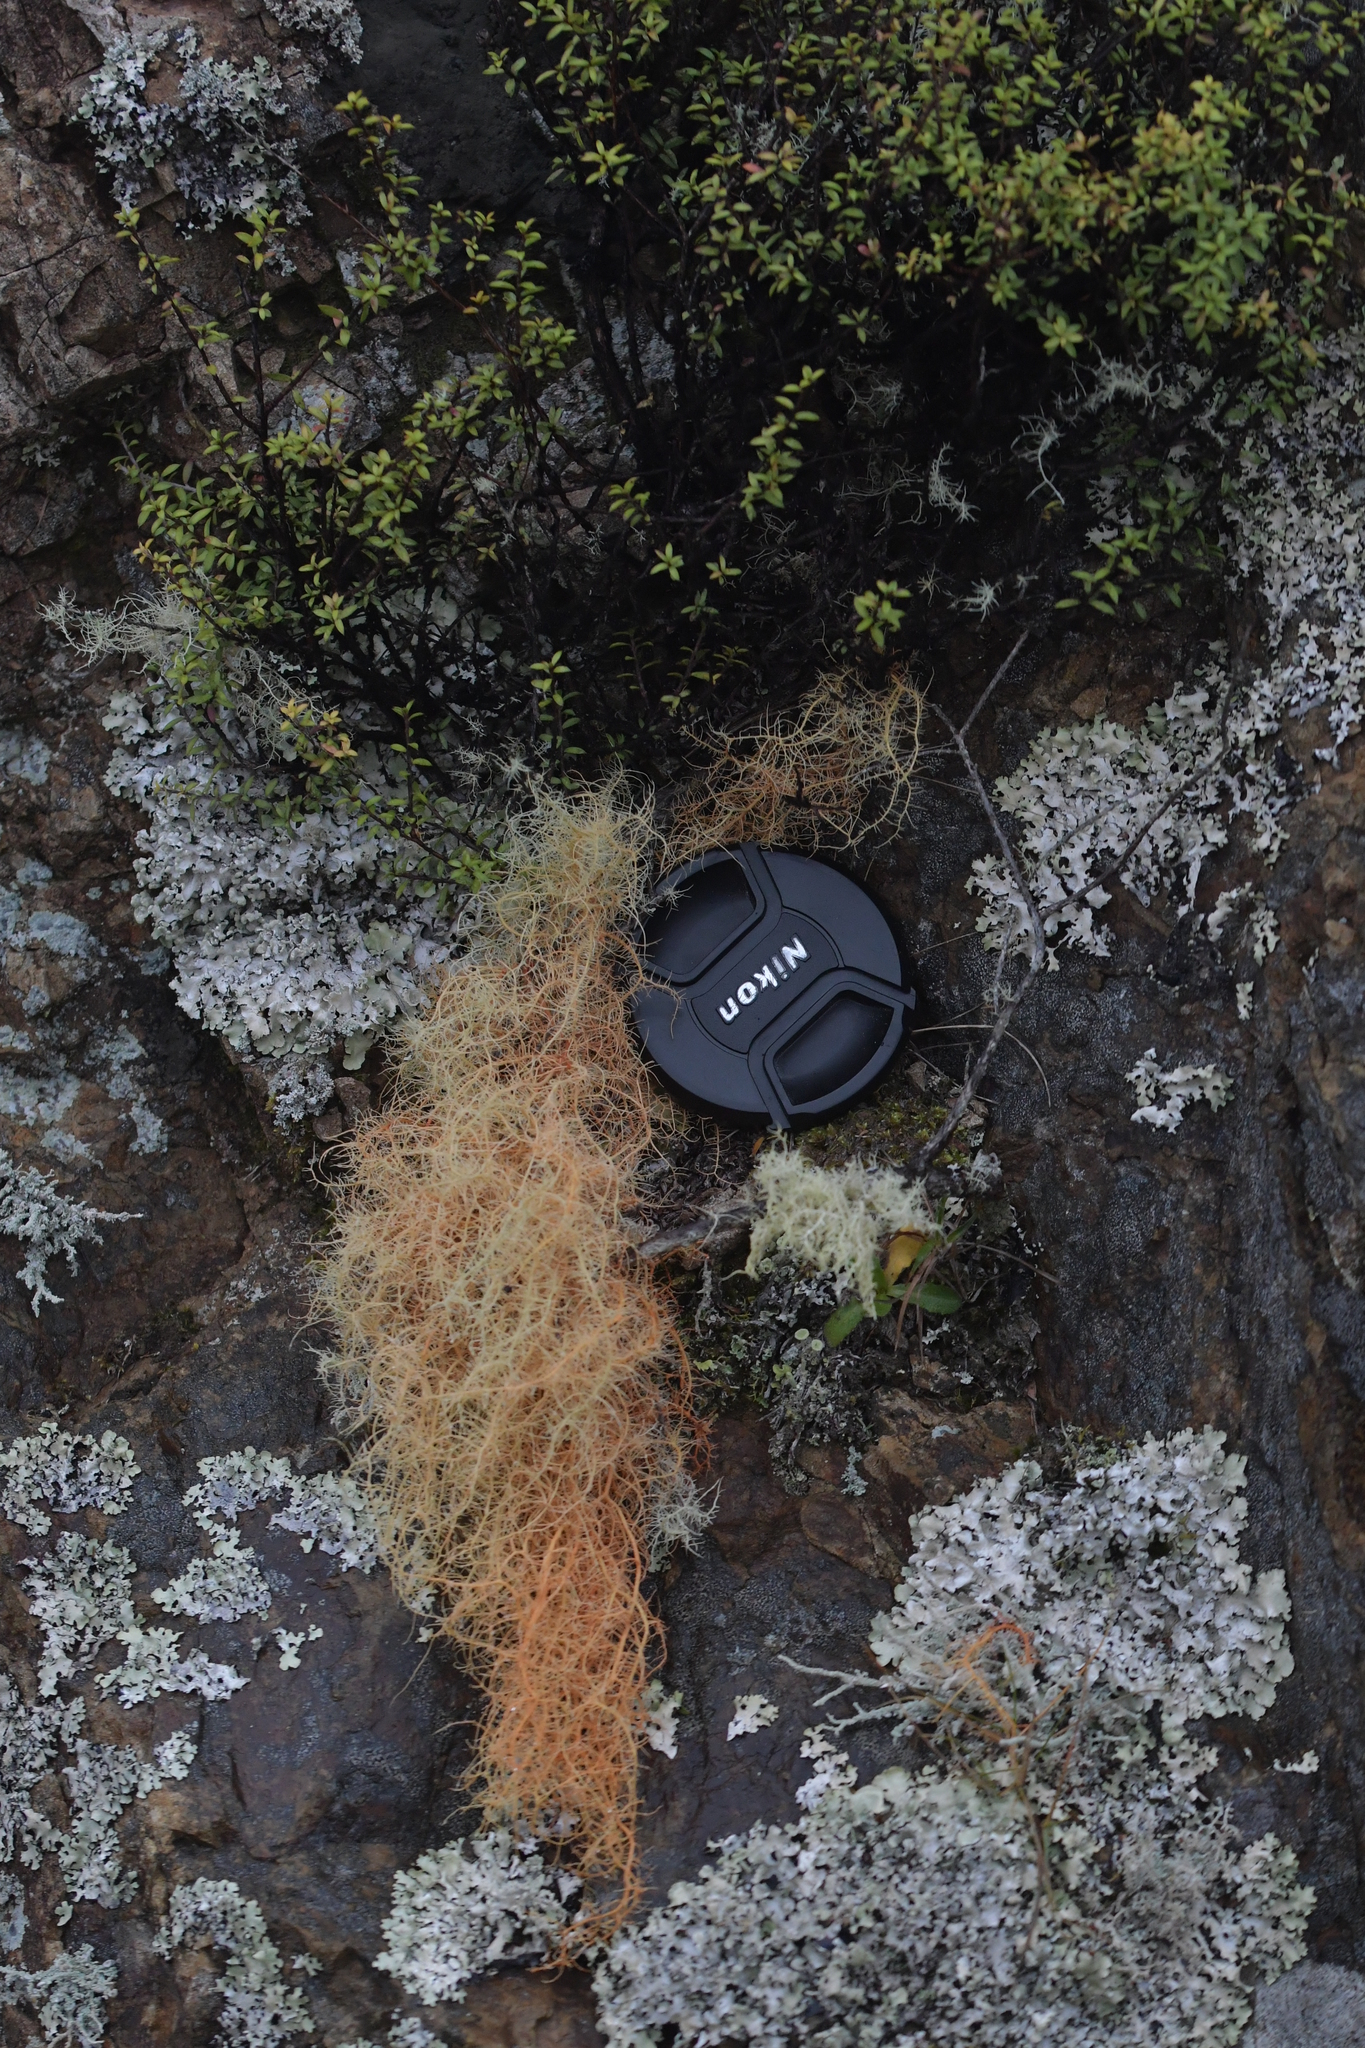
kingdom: Fungi
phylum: Ascomycota
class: Lecanoromycetes
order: Lecanorales
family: Parmeliaceae
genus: Usnea
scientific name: Usnea rubicunda
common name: Red beard lichen
